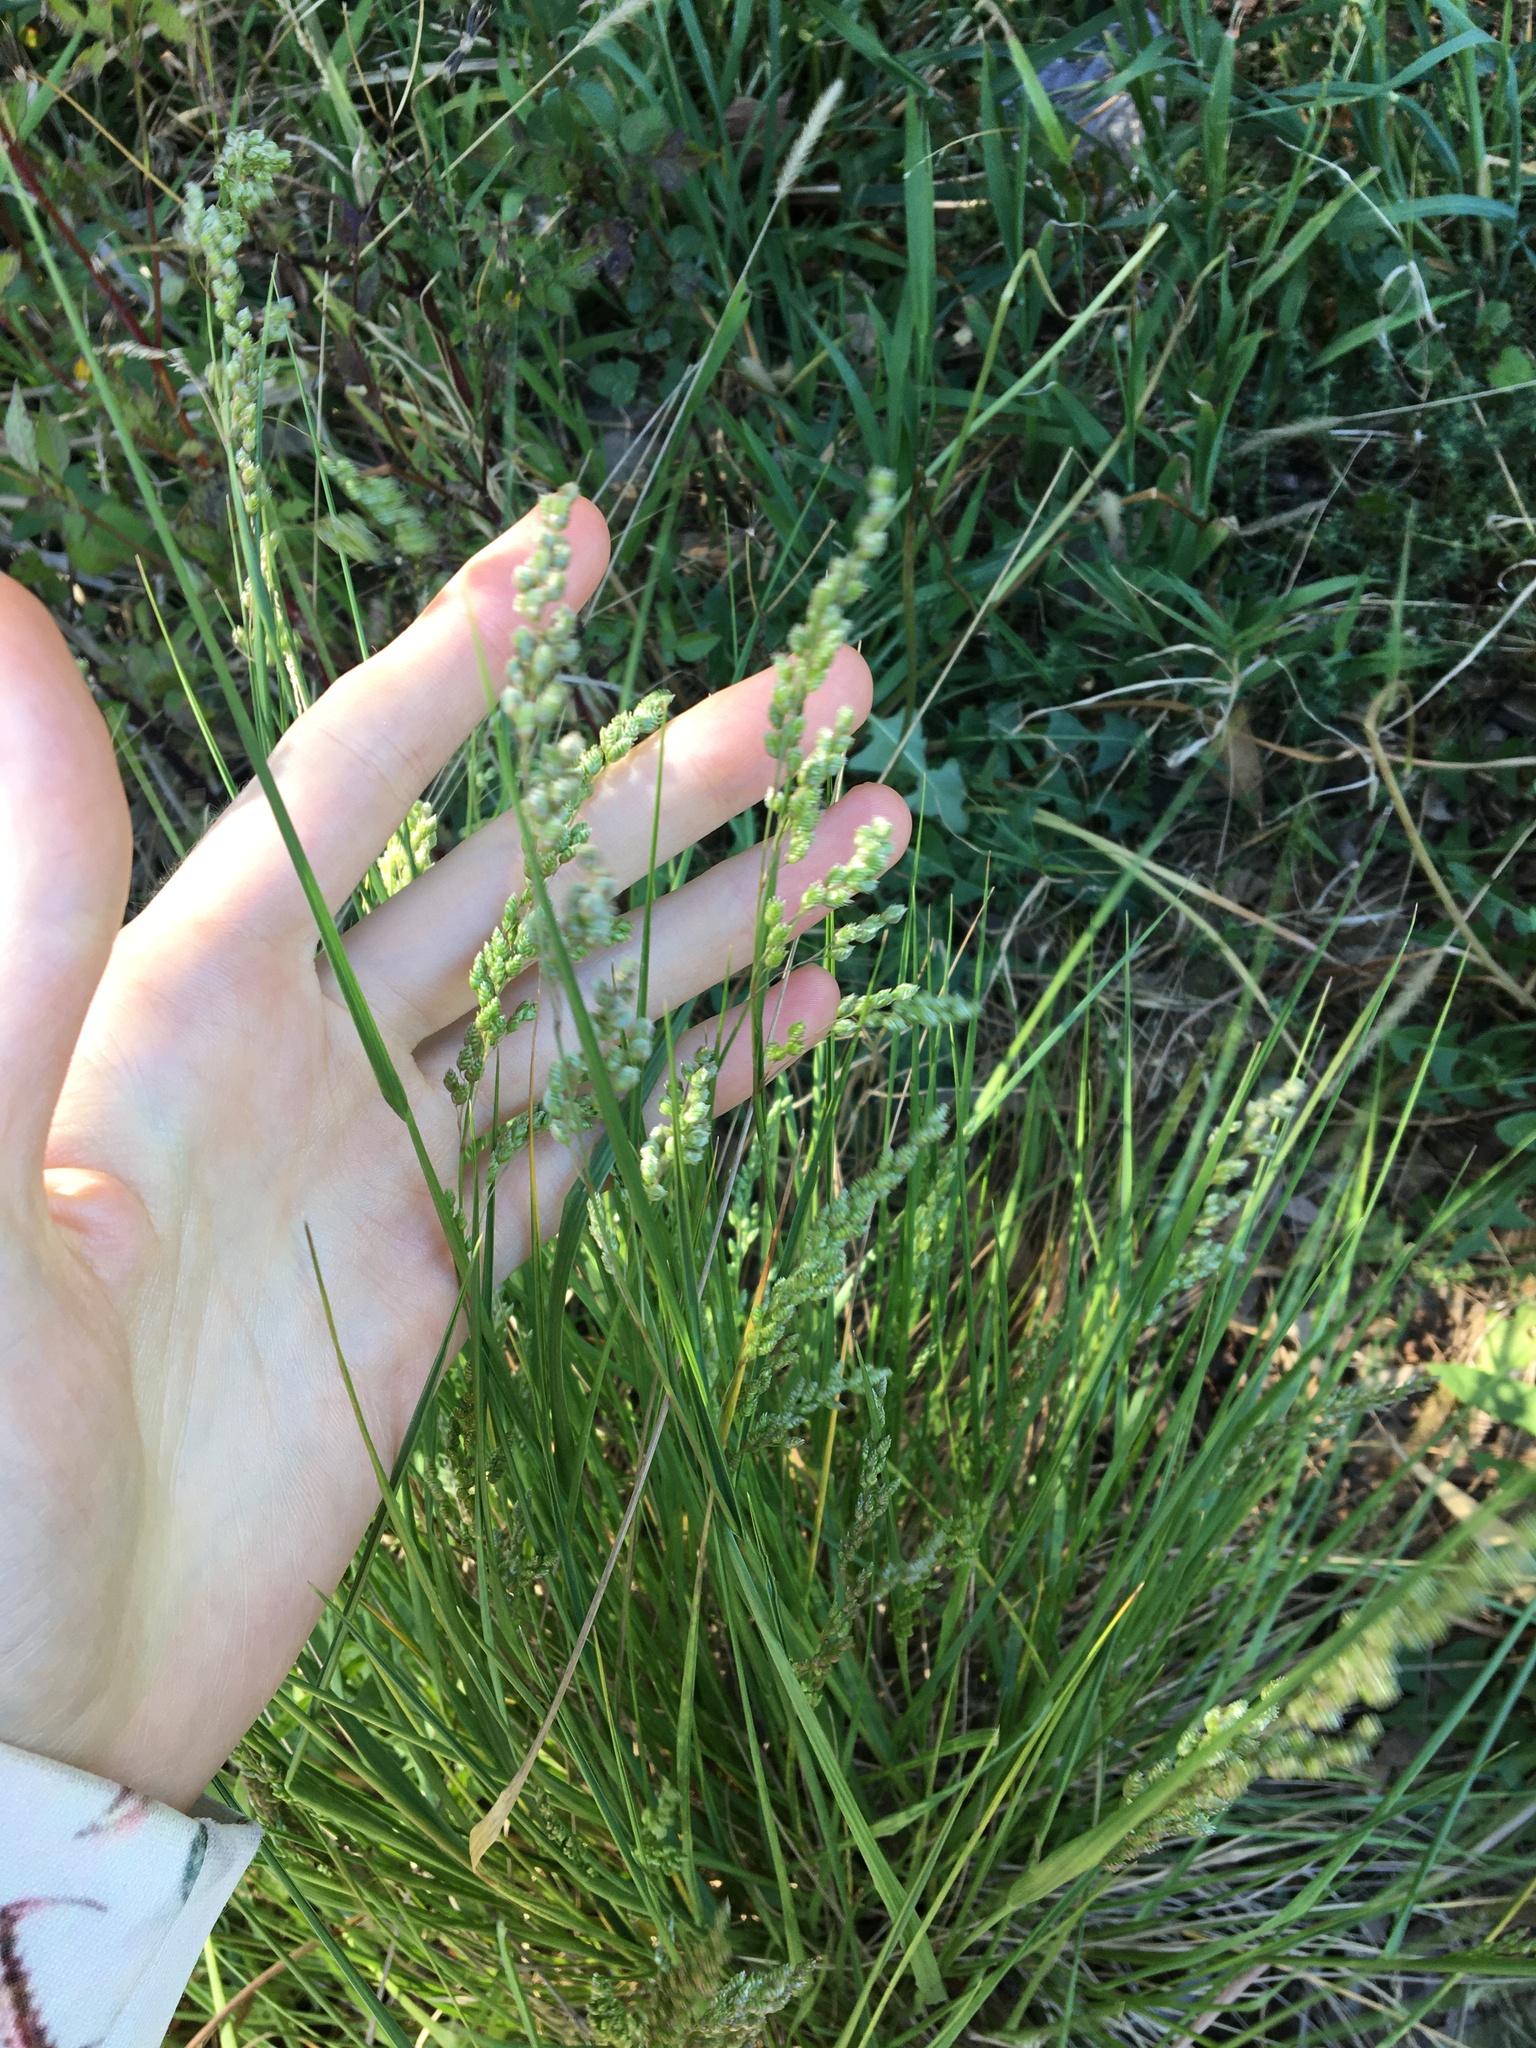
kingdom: Plantae
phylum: Tracheophyta
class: Liliopsida
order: Poales
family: Poaceae
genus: Chascolytrum
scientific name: Chascolytrum subaristatum
